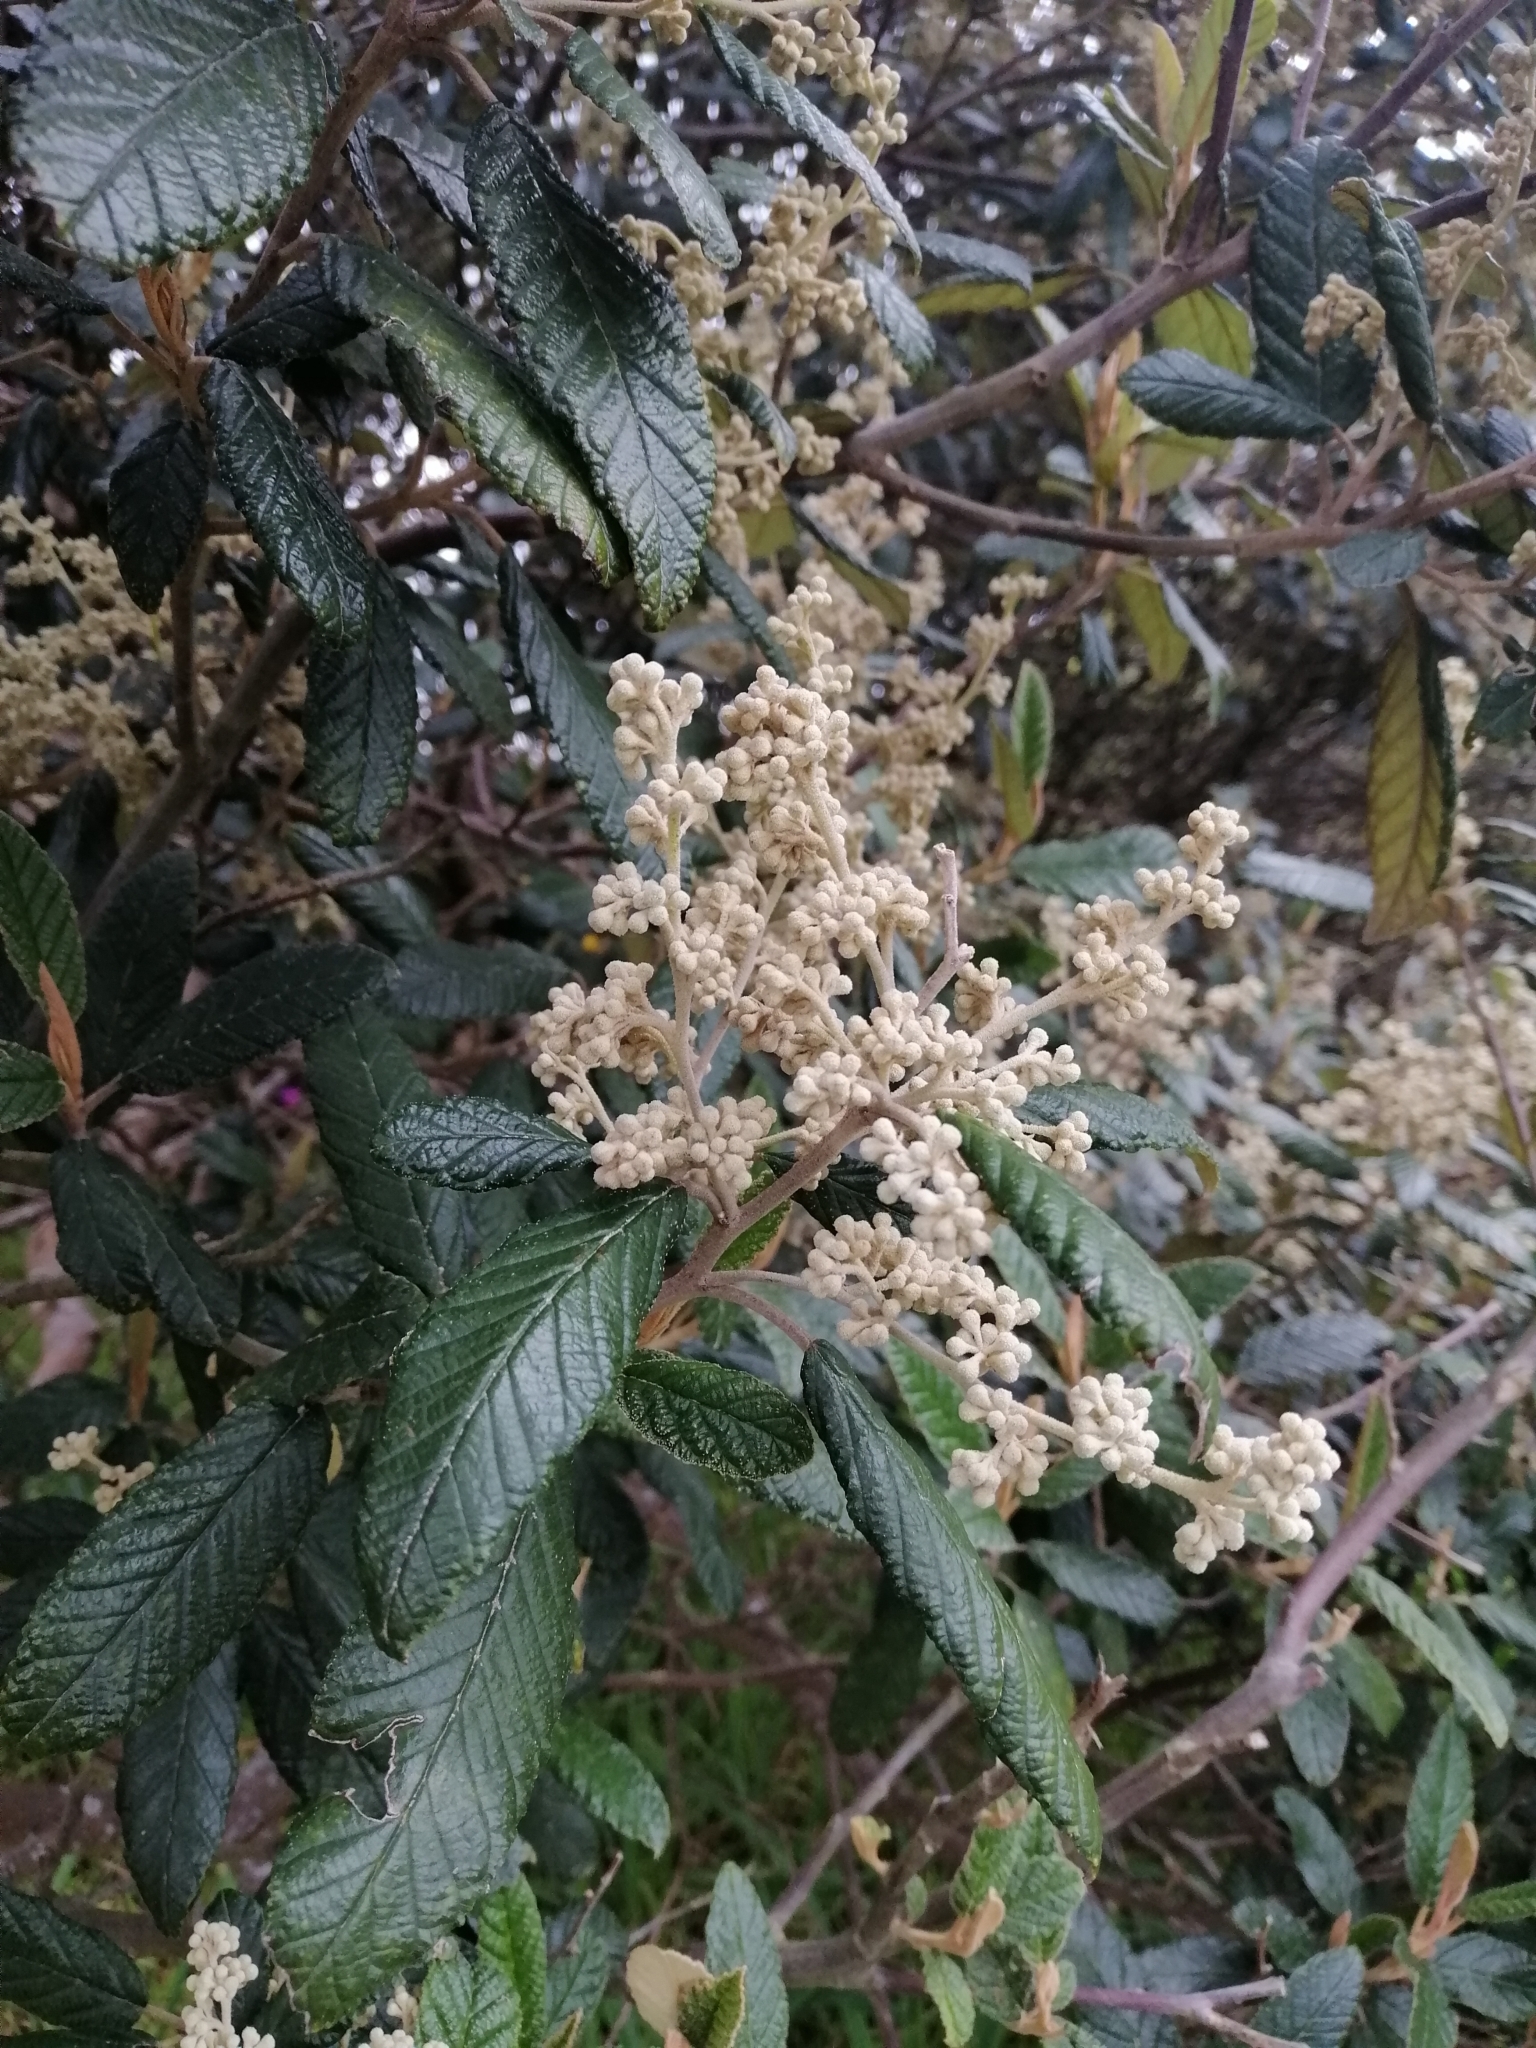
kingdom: Plantae
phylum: Tracheophyta
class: Magnoliopsida
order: Rosales
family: Rhamnaceae
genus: Pomaderris
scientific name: Pomaderris apetala
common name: Hazel pomaderris
